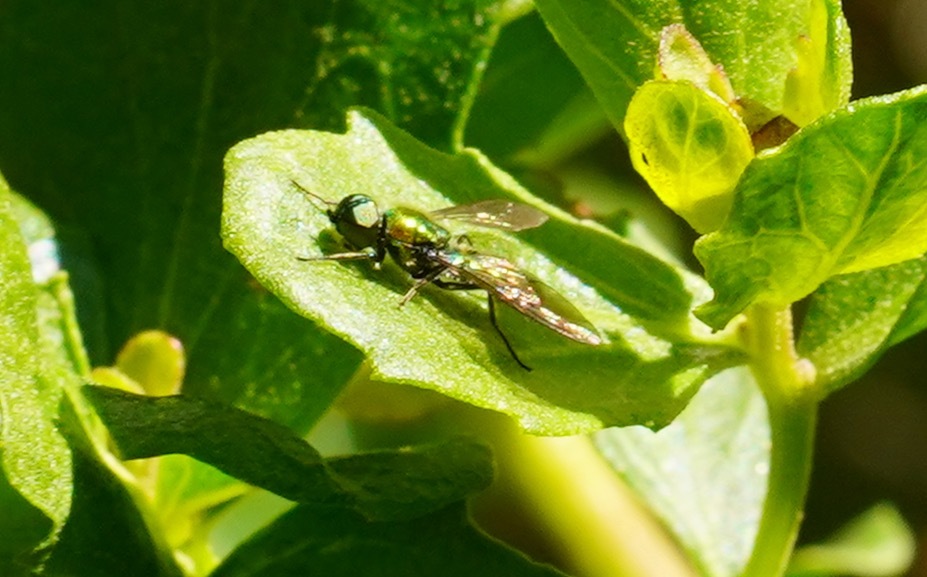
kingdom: Animalia
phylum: Arthropoda
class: Insecta
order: Diptera
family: Stratiomyidae
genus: Sargus
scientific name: Sargus viridis
